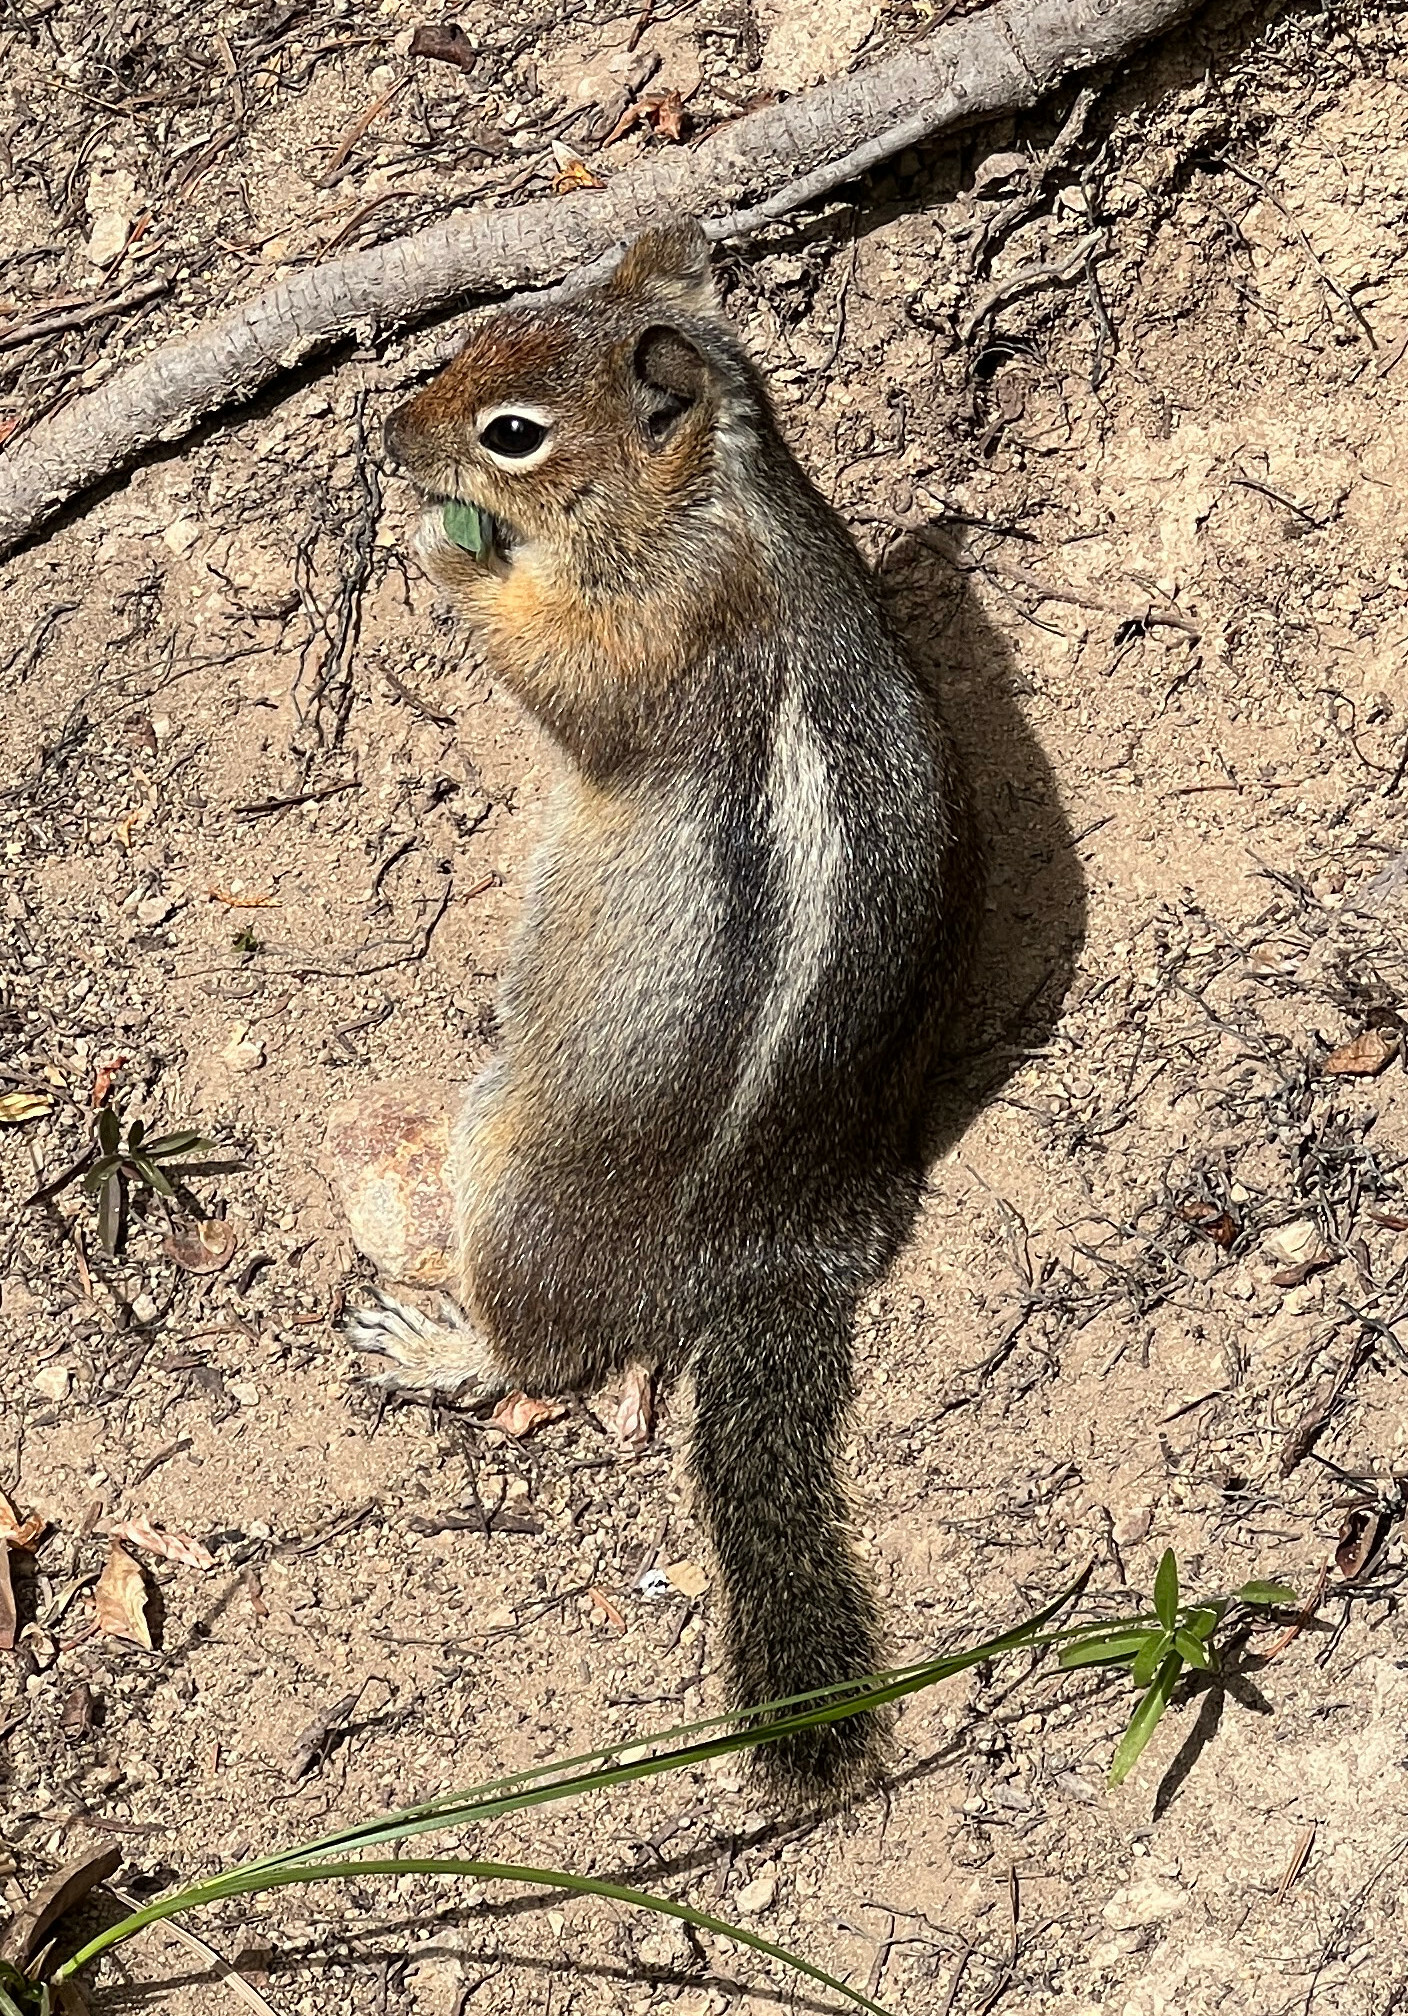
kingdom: Animalia
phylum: Chordata
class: Mammalia
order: Rodentia
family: Sciuridae
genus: Callospermophilus
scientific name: Callospermophilus saturatus
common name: Cascade golden-mantled ground squirrel
